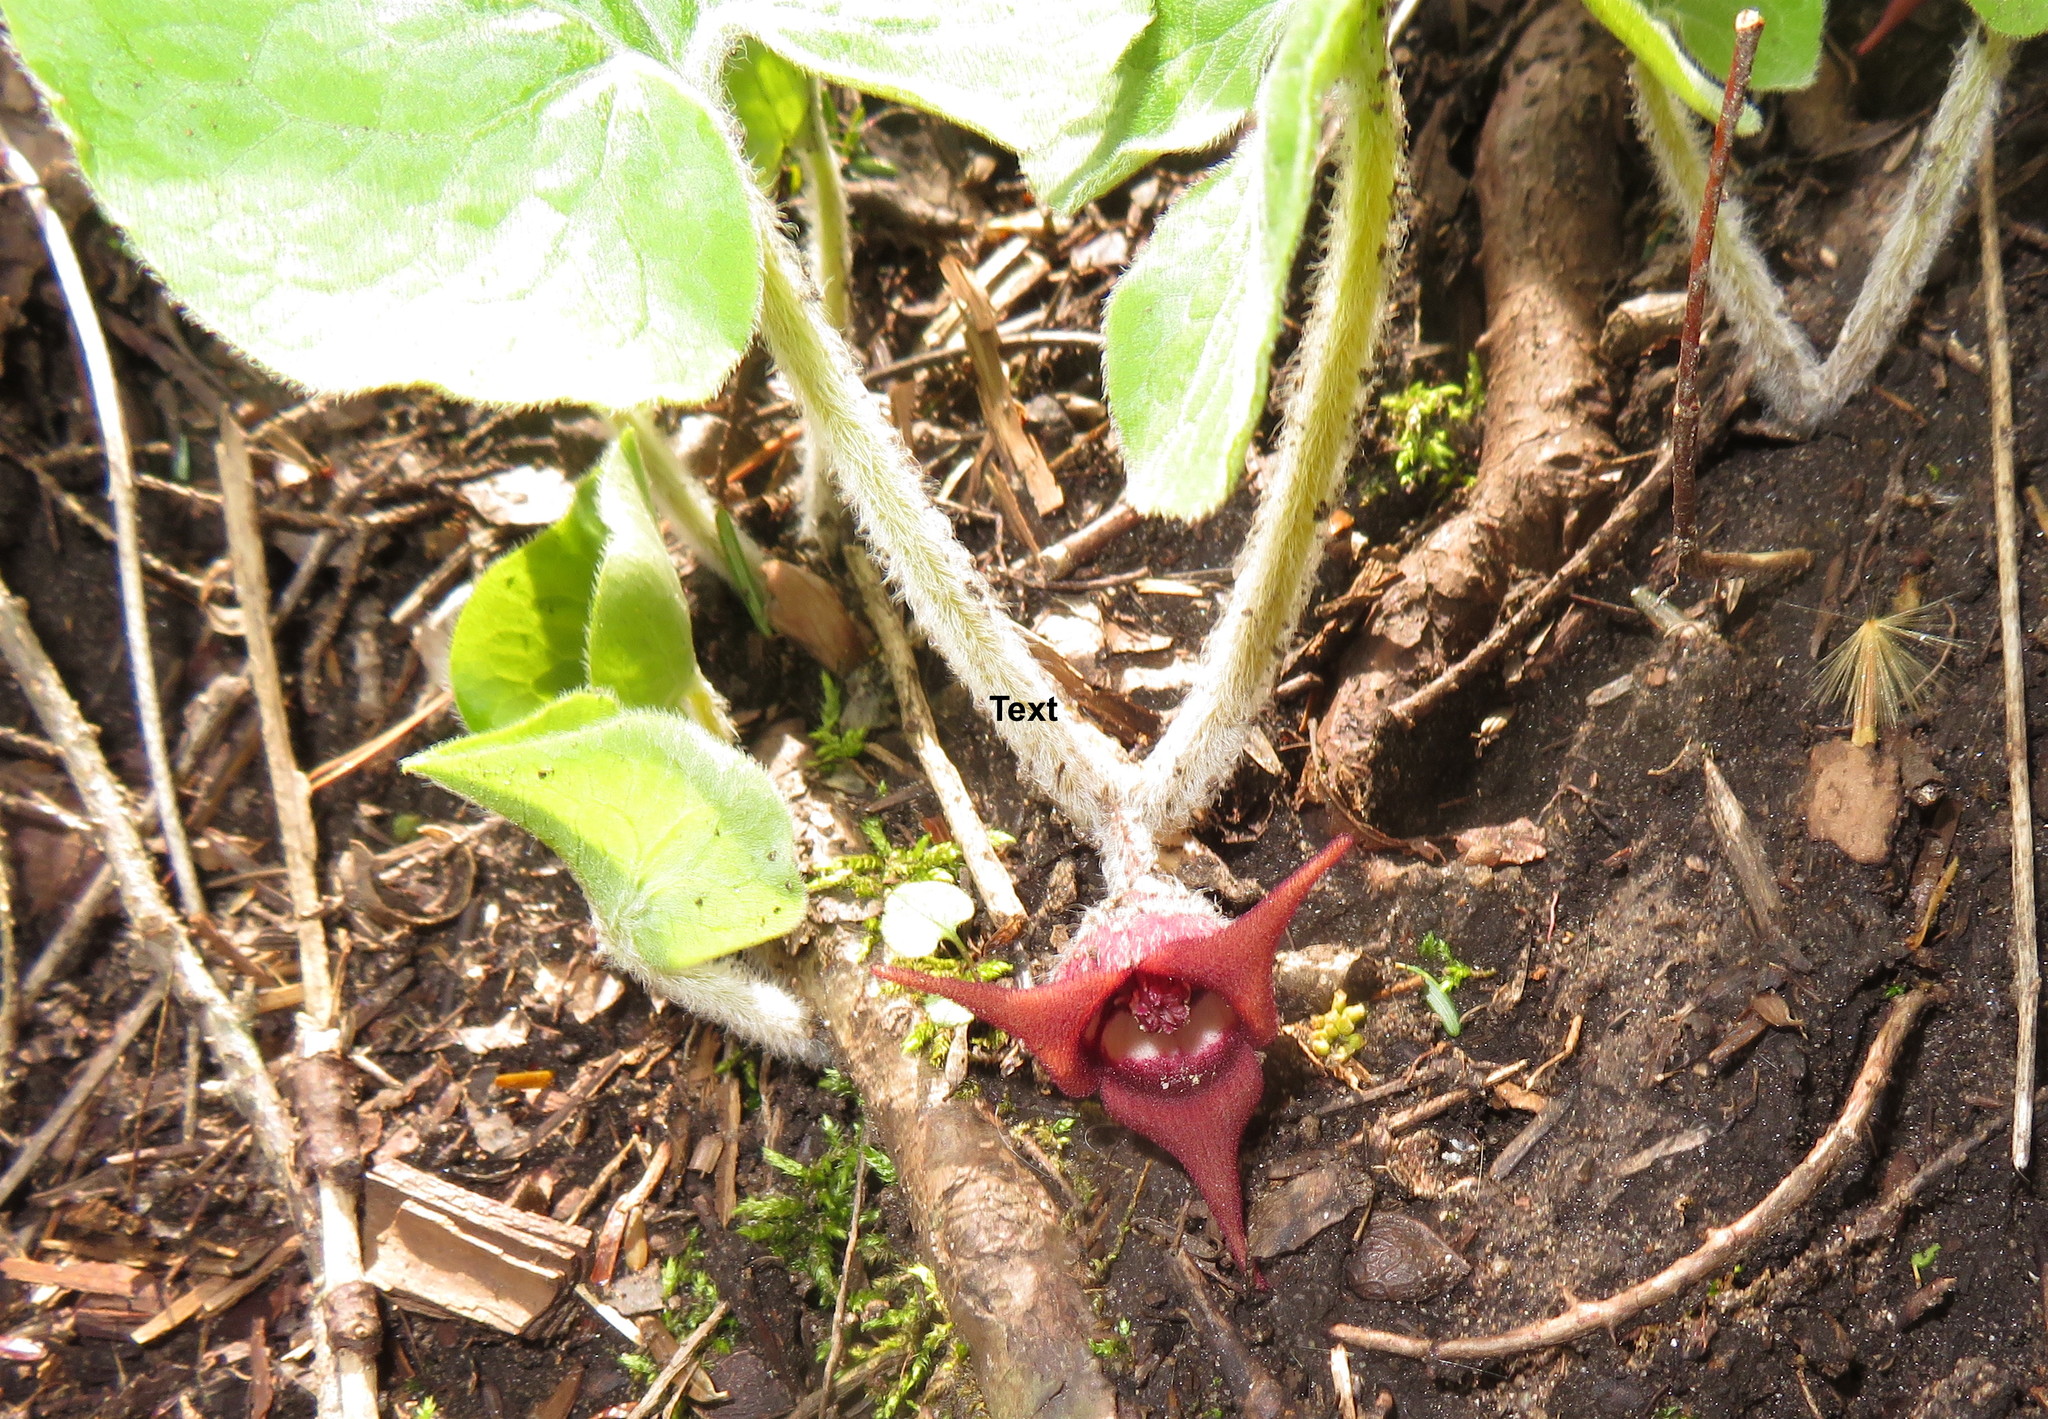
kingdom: Plantae
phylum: Tracheophyta
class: Magnoliopsida
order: Piperales
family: Aristolochiaceae
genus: Asarum
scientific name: Asarum canadense
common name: Wild ginger
